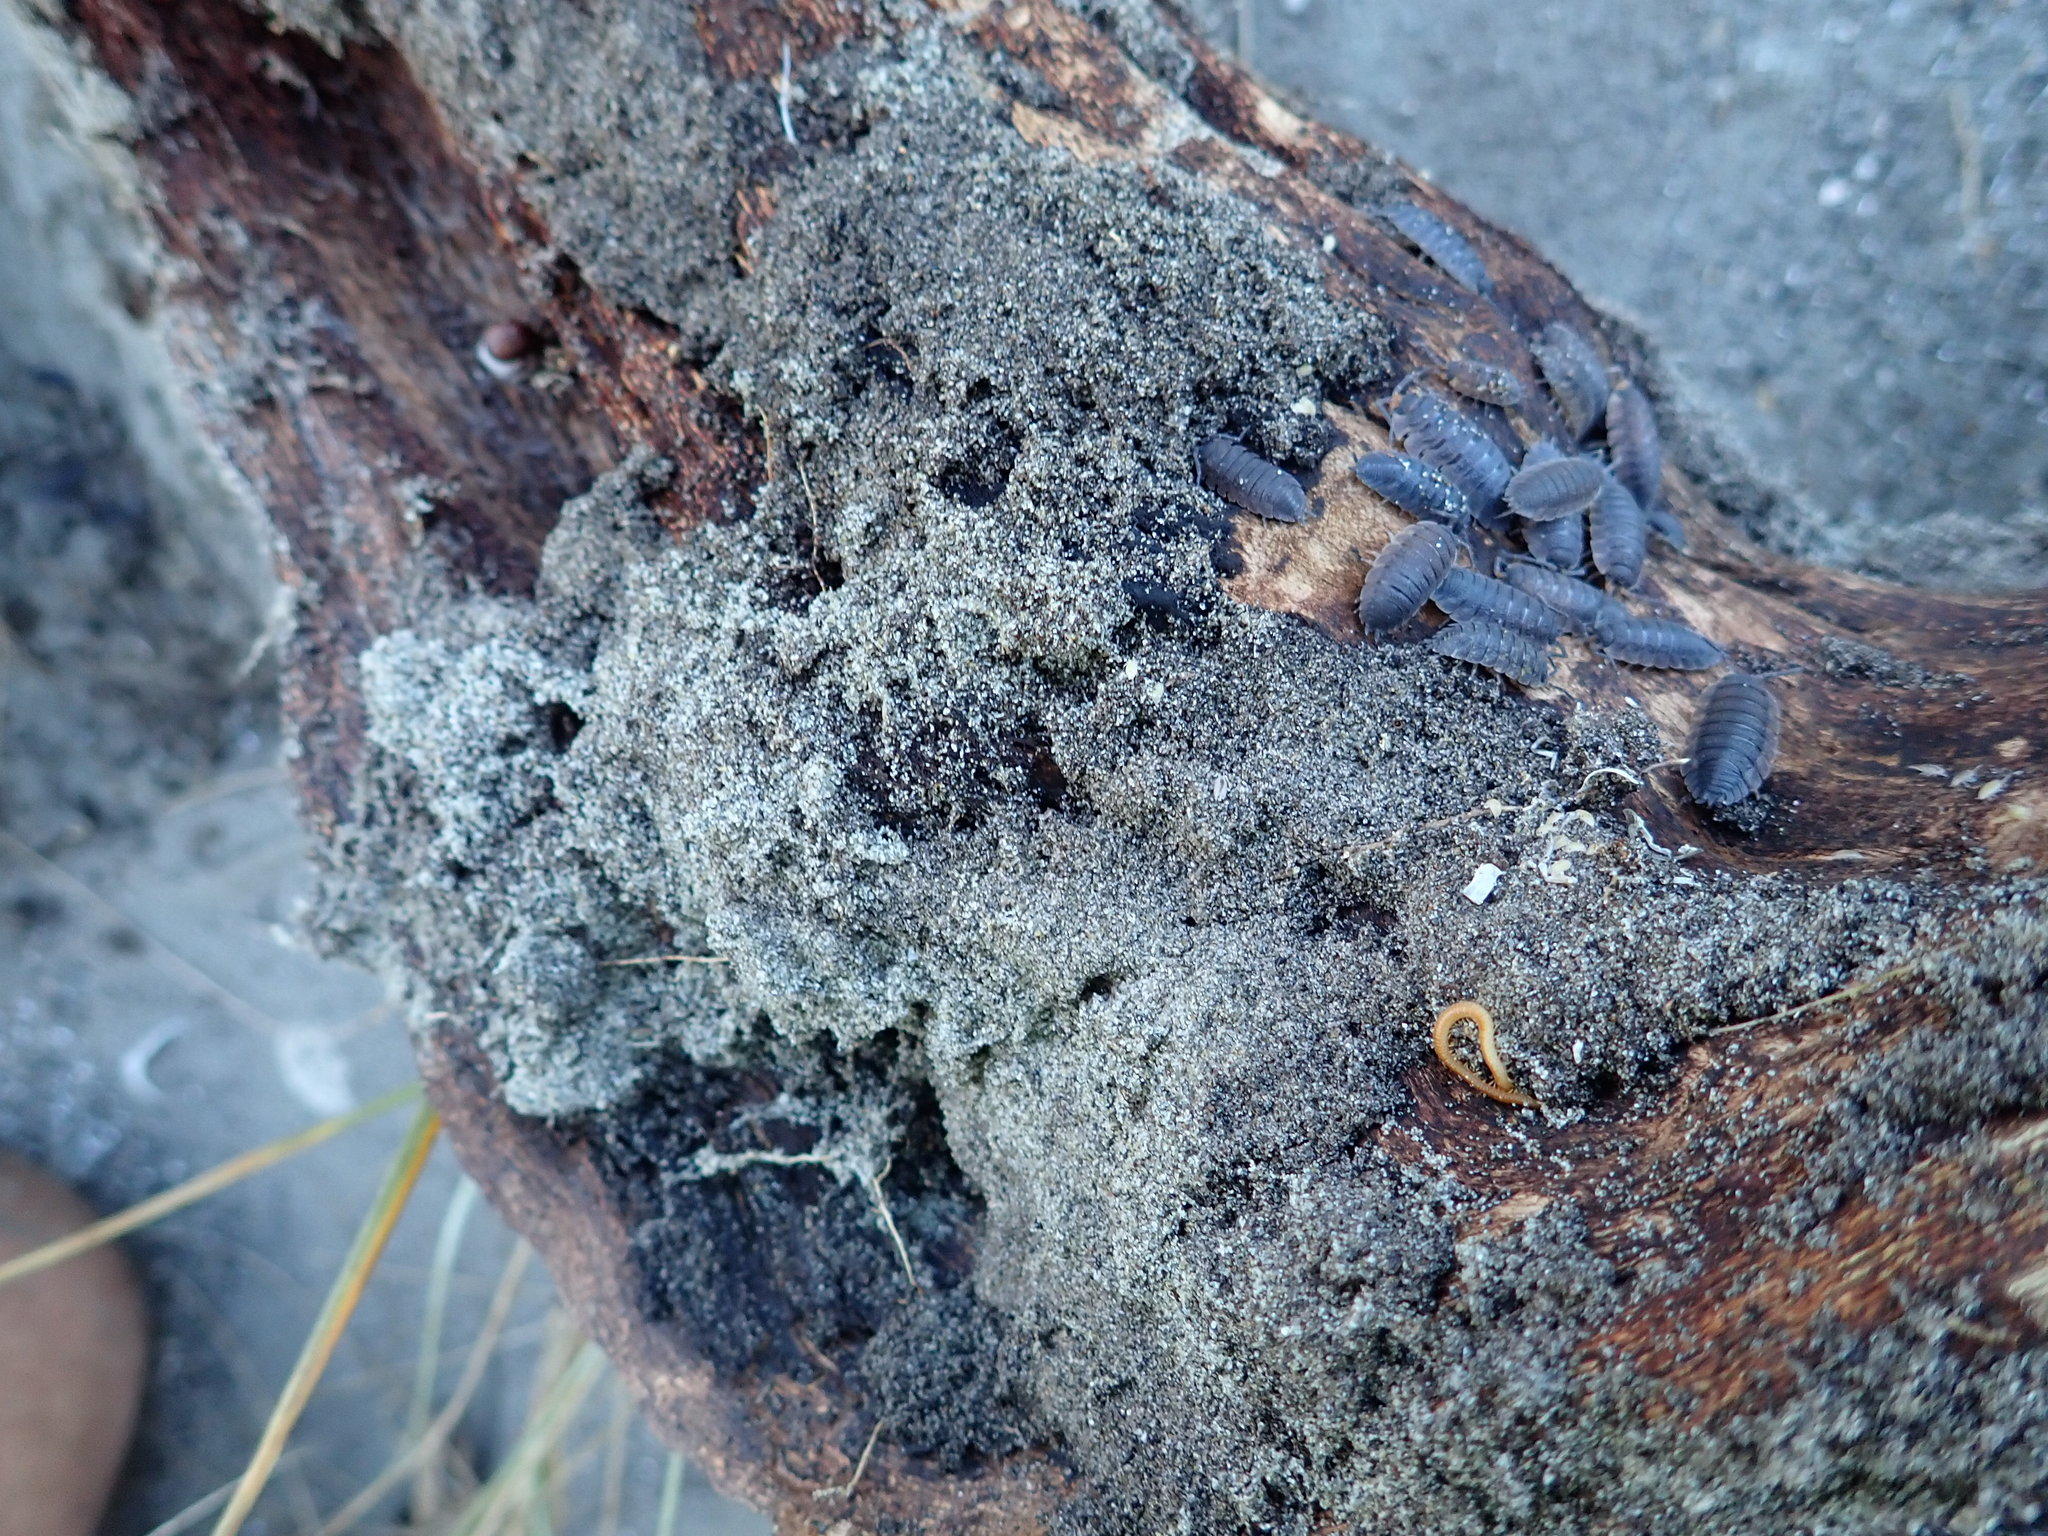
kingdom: Animalia
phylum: Arthropoda
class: Malacostraca
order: Isopoda
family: Porcellionidae
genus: Porcellio
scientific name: Porcellio scaber
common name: Common rough woodlouse
